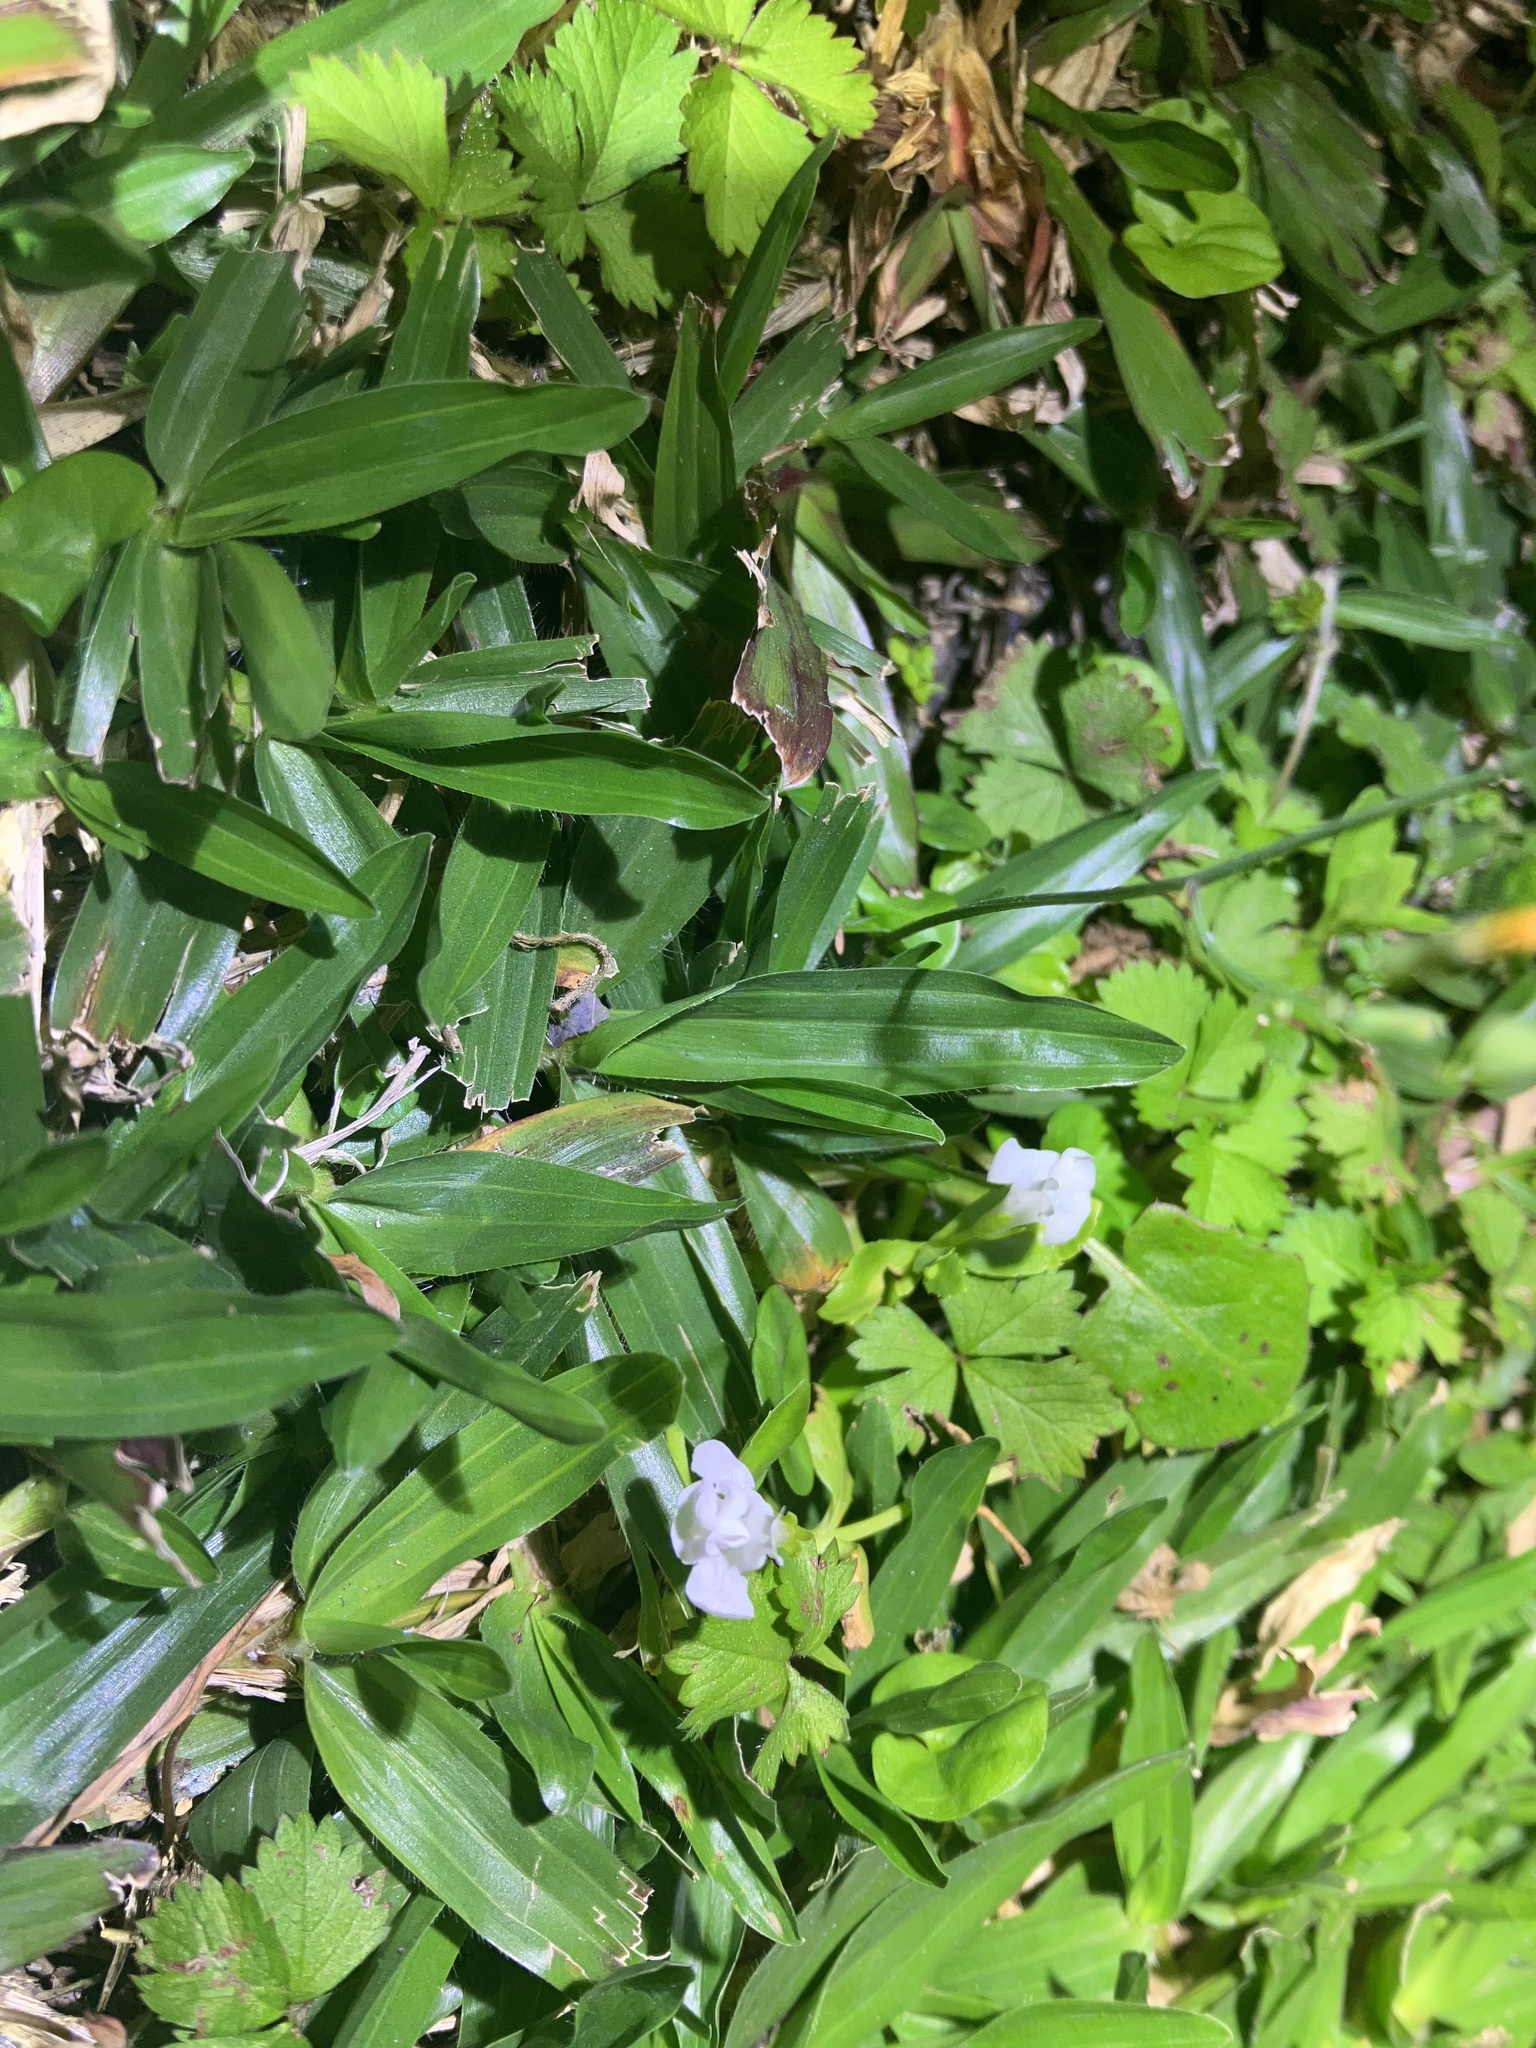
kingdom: Plantae
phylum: Tracheophyta
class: Magnoliopsida
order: Lamiales
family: Linderniaceae
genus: Bonnaya
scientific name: Bonnaya antipoda
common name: Sparrow false pimpernel
